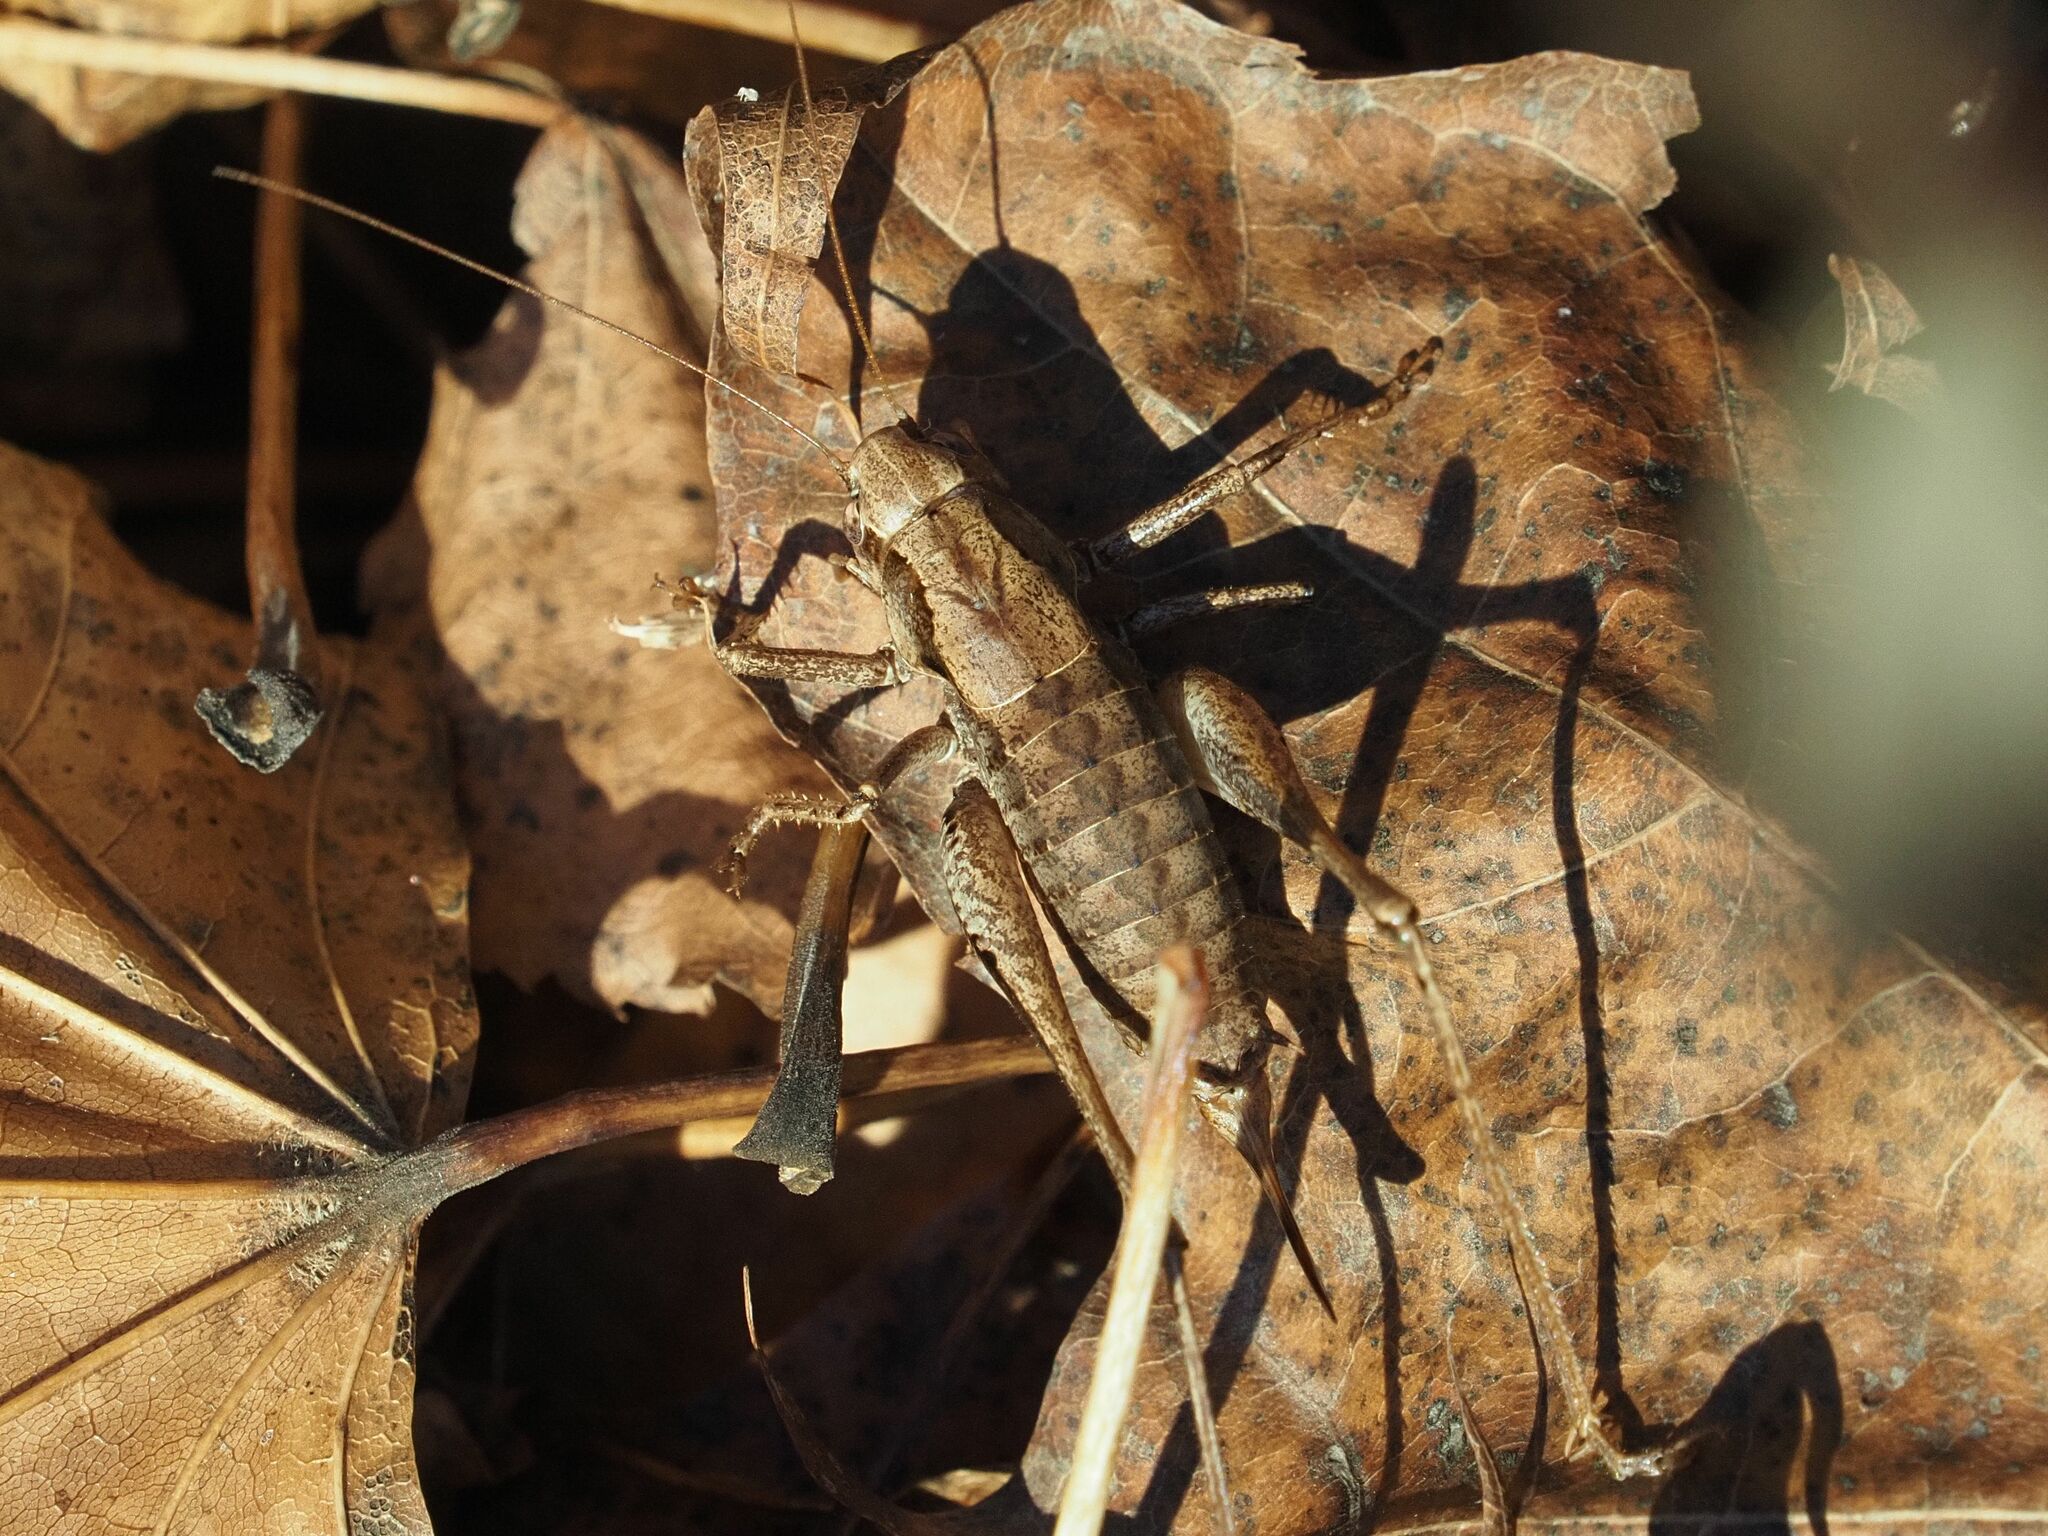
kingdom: Animalia
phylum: Arthropoda
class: Insecta
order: Orthoptera
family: Tettigoniidae
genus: Pholidoptera
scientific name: Pholidoptera griseoaptera
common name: Dark bush-cricket
